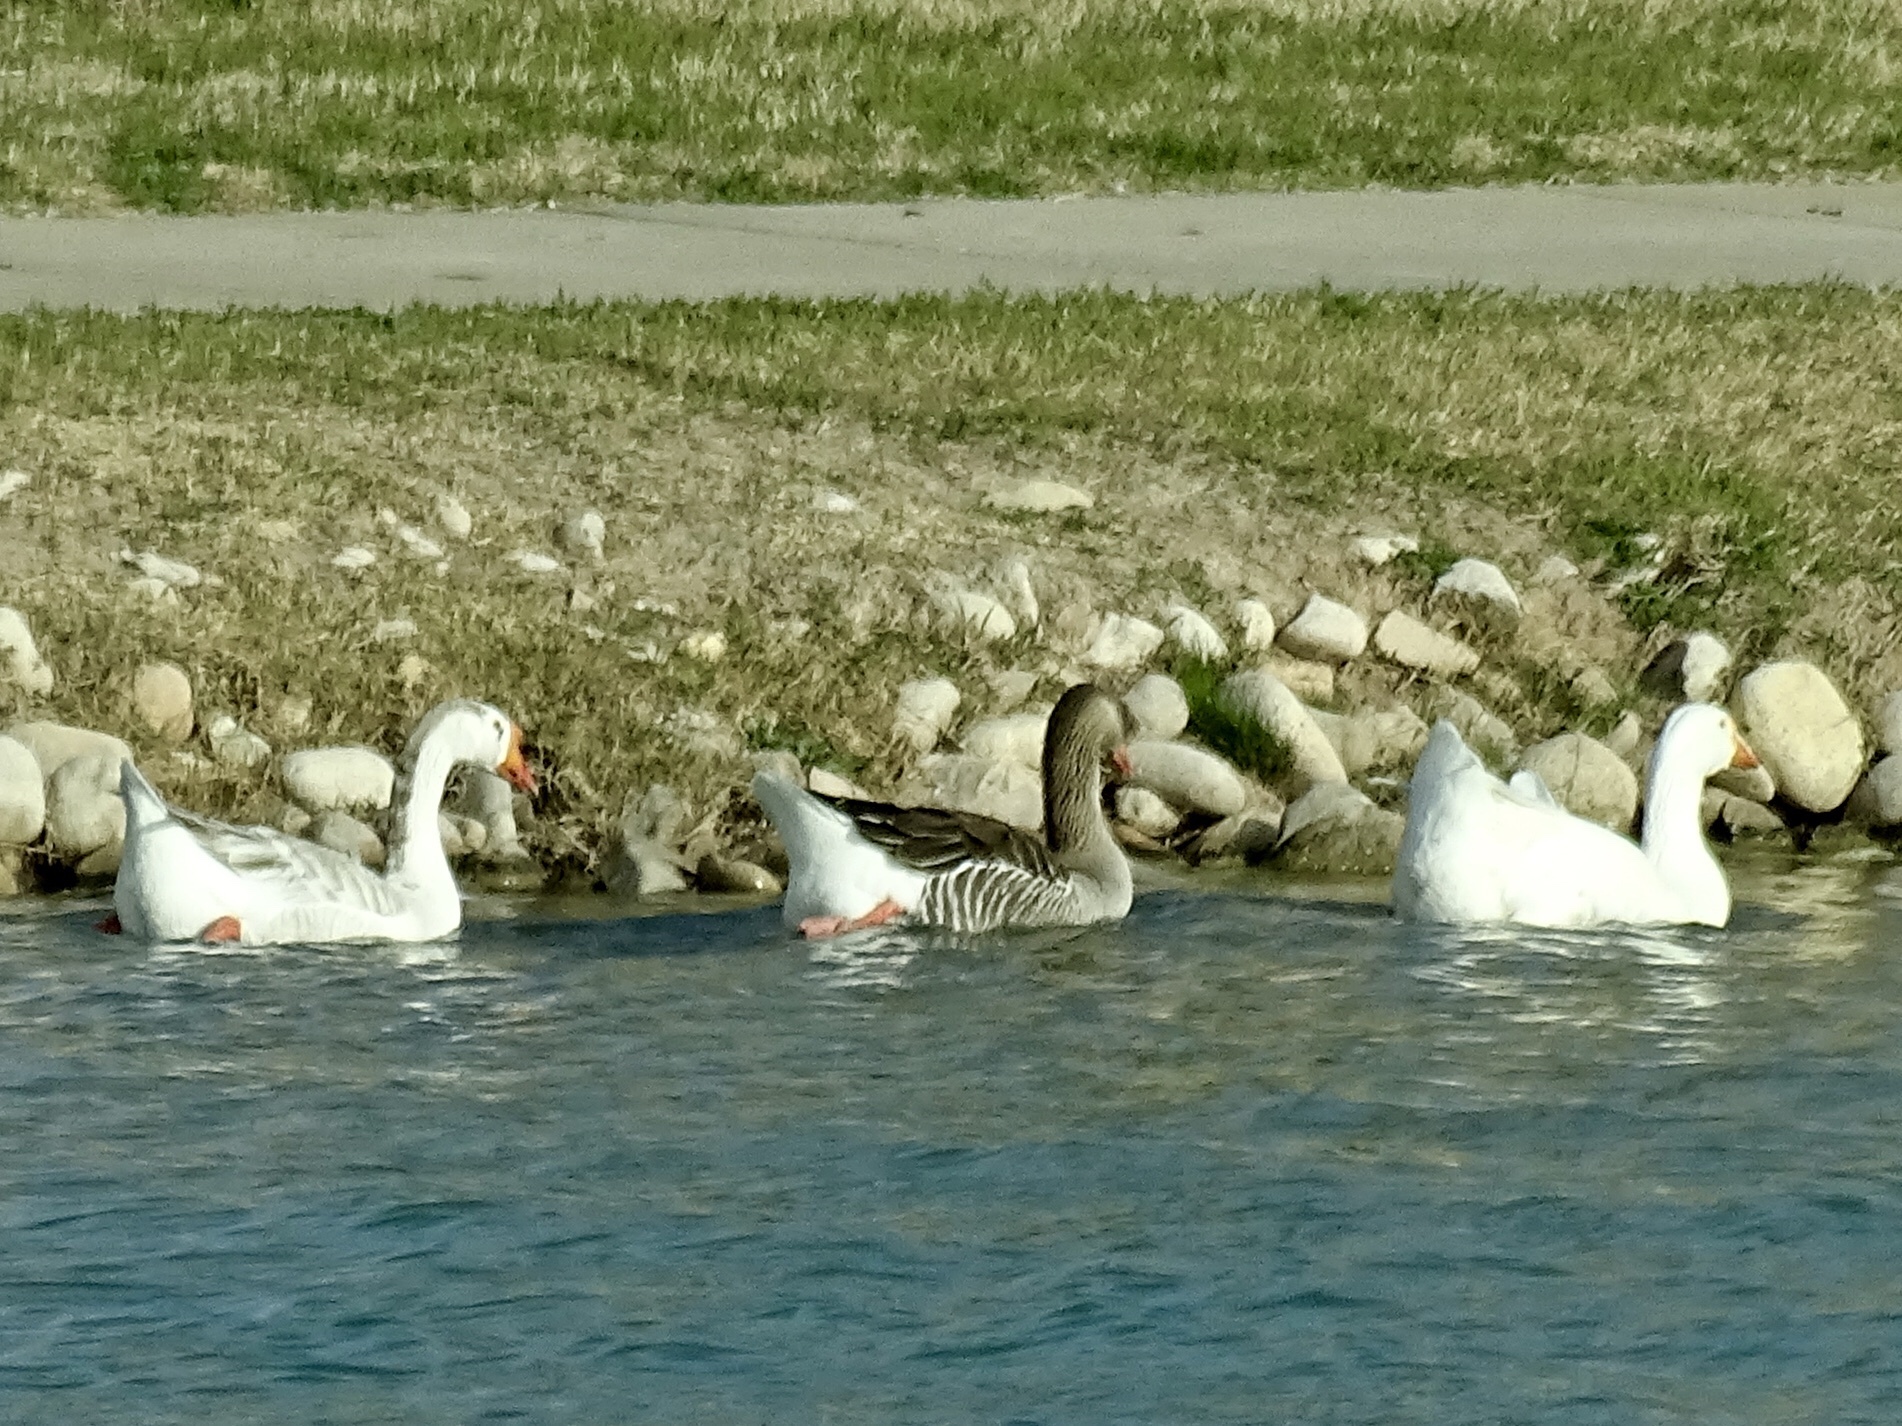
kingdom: Animalia
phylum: Chordata
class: Aves
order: Anseriformes
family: Anatidae
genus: Anser
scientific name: Anser anser
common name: Greylag goose
